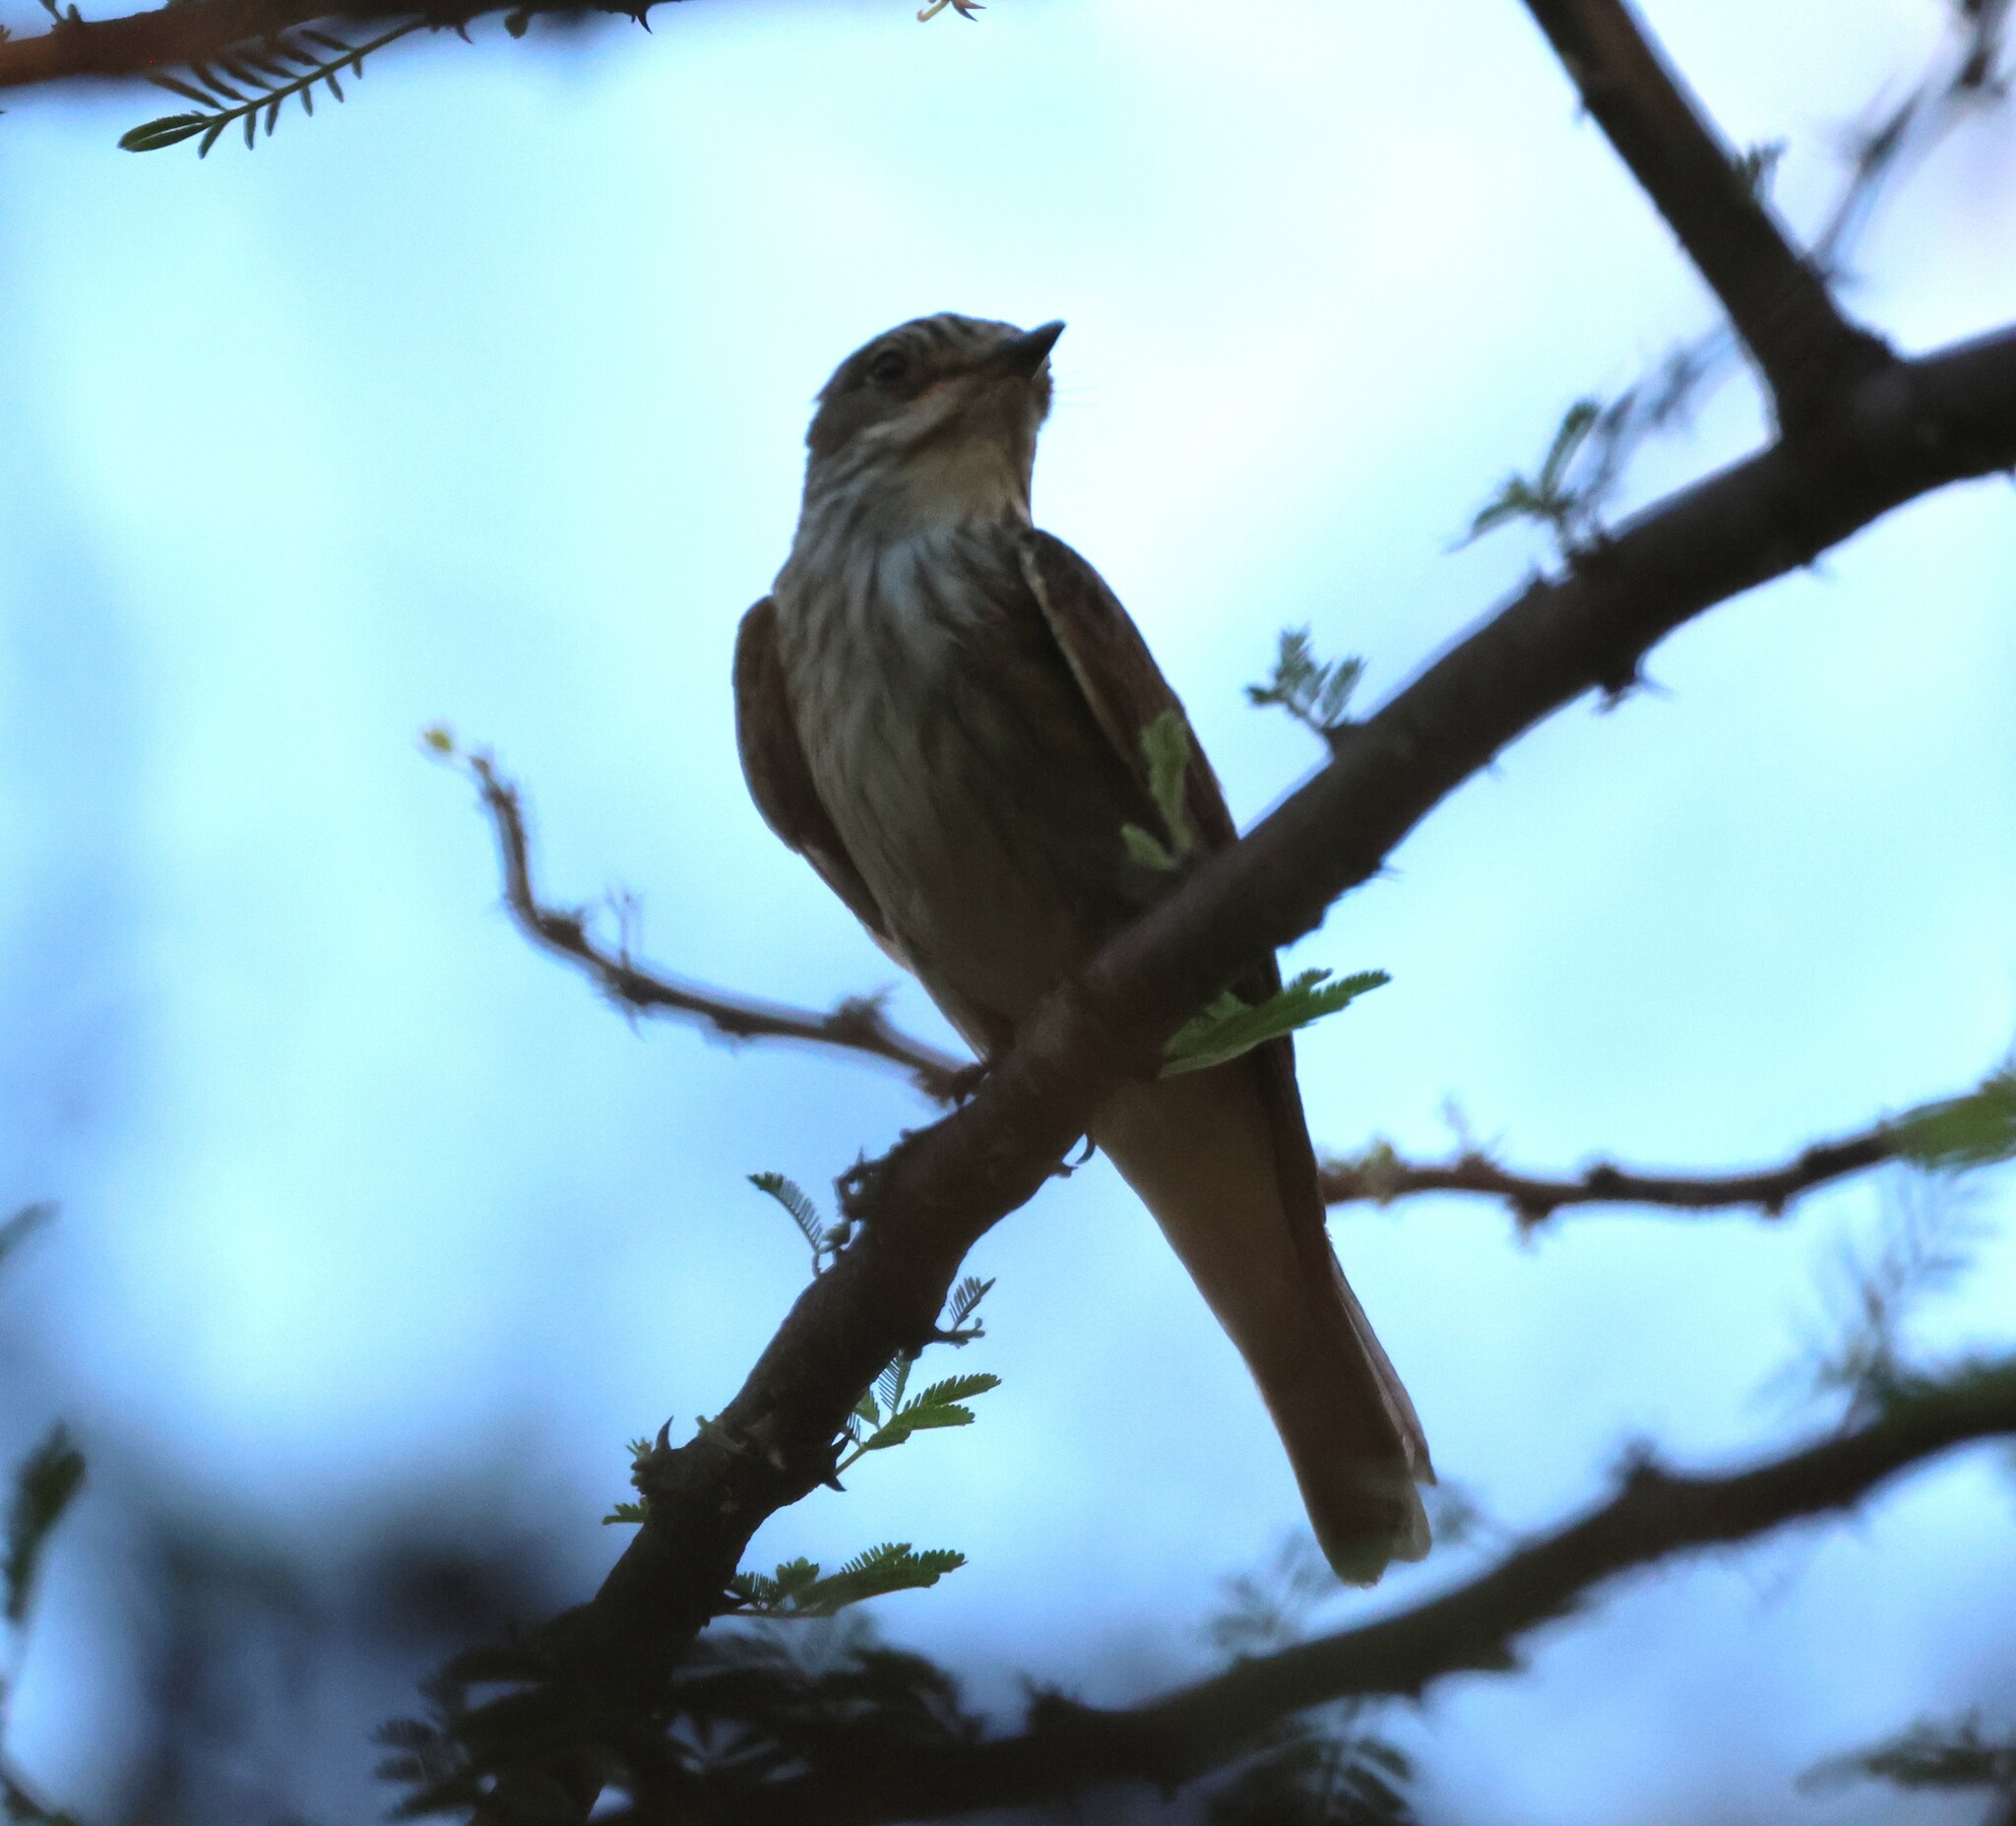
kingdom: Animalia
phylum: Chordata
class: Aves
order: Passeriformes
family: Muscicapidae
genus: Muscicapa
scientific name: Muscicapa striata
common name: Spotted flycatcher
